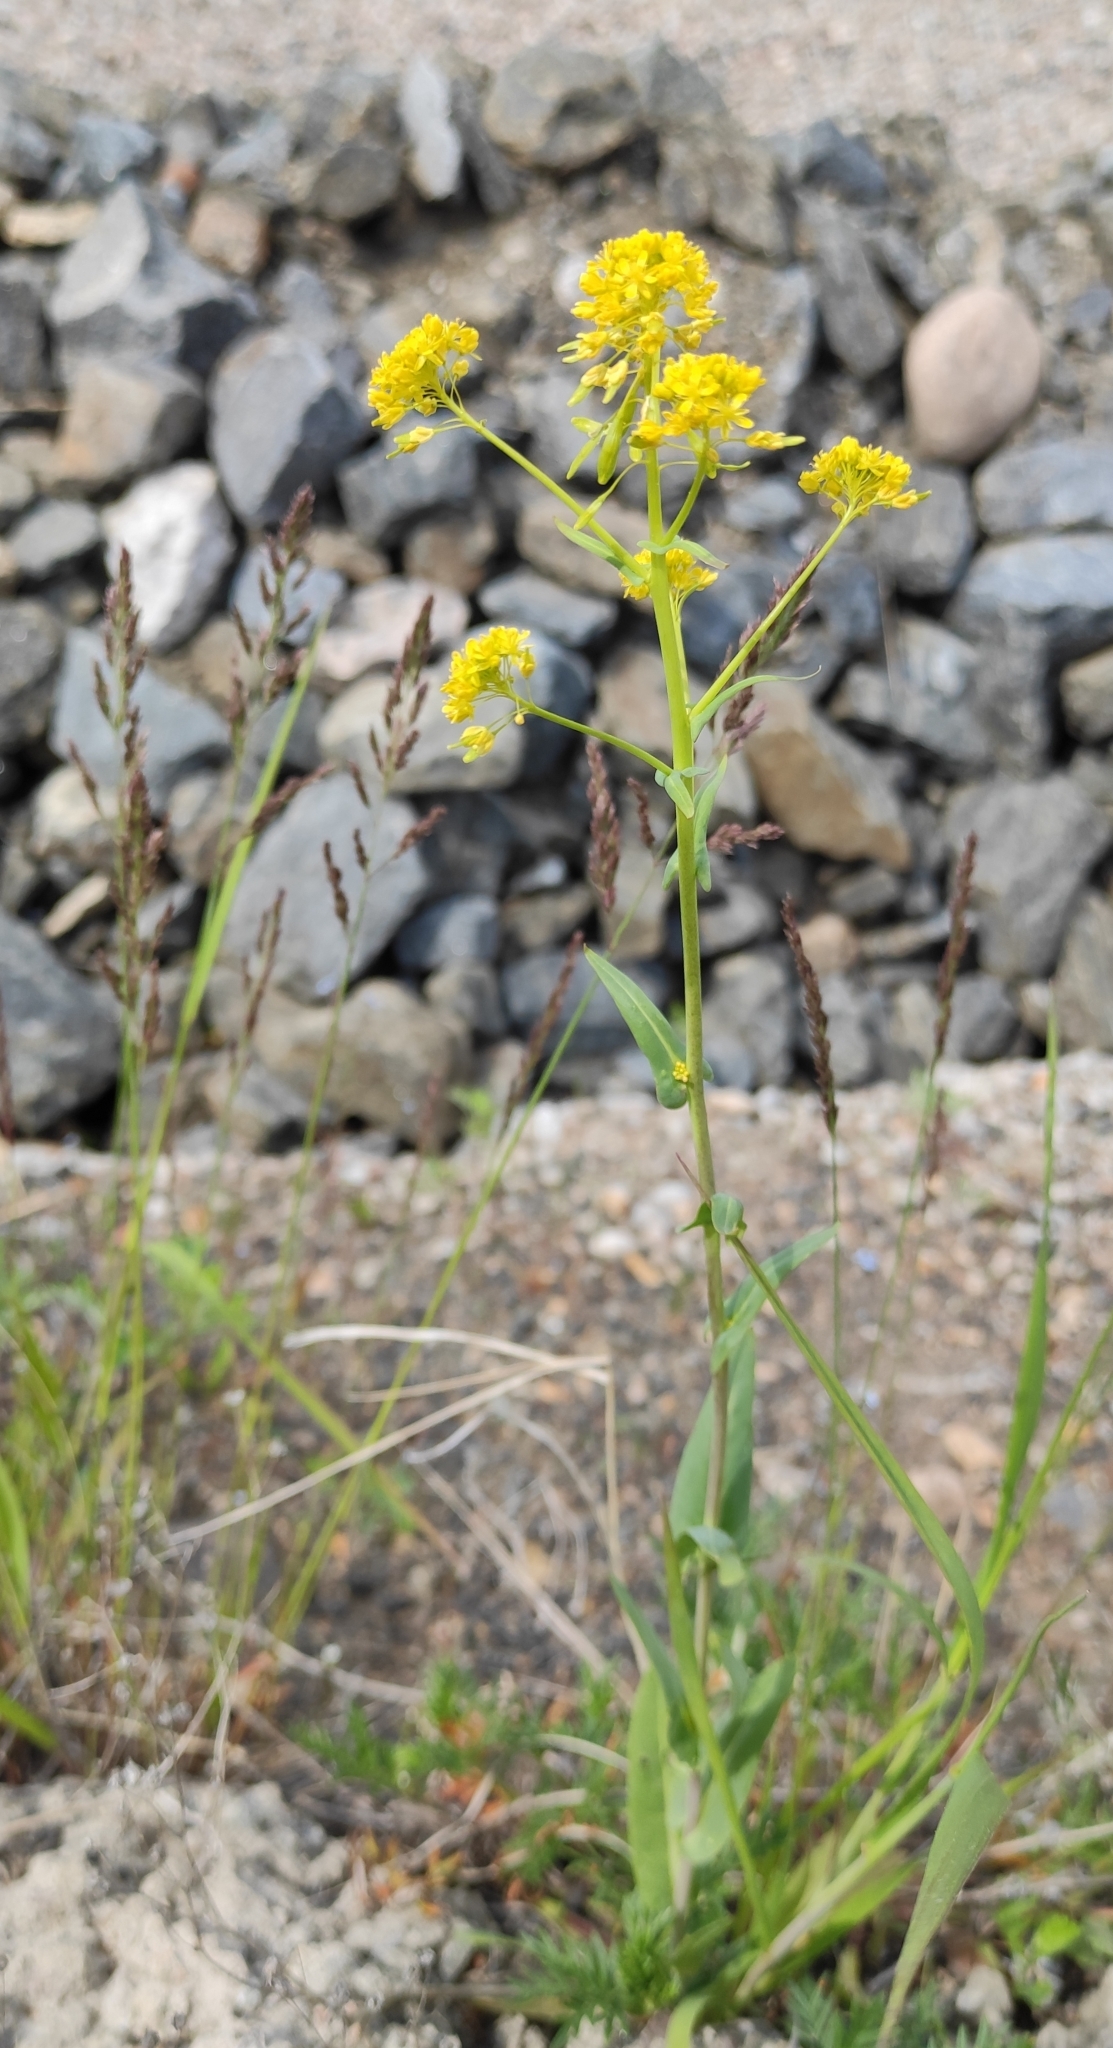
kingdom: Plantae
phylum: Tracheophyta
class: Magnoliopsida
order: Brassicales
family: Brassicaceae
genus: Isatis
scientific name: Isatis tinctoria
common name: Woad
